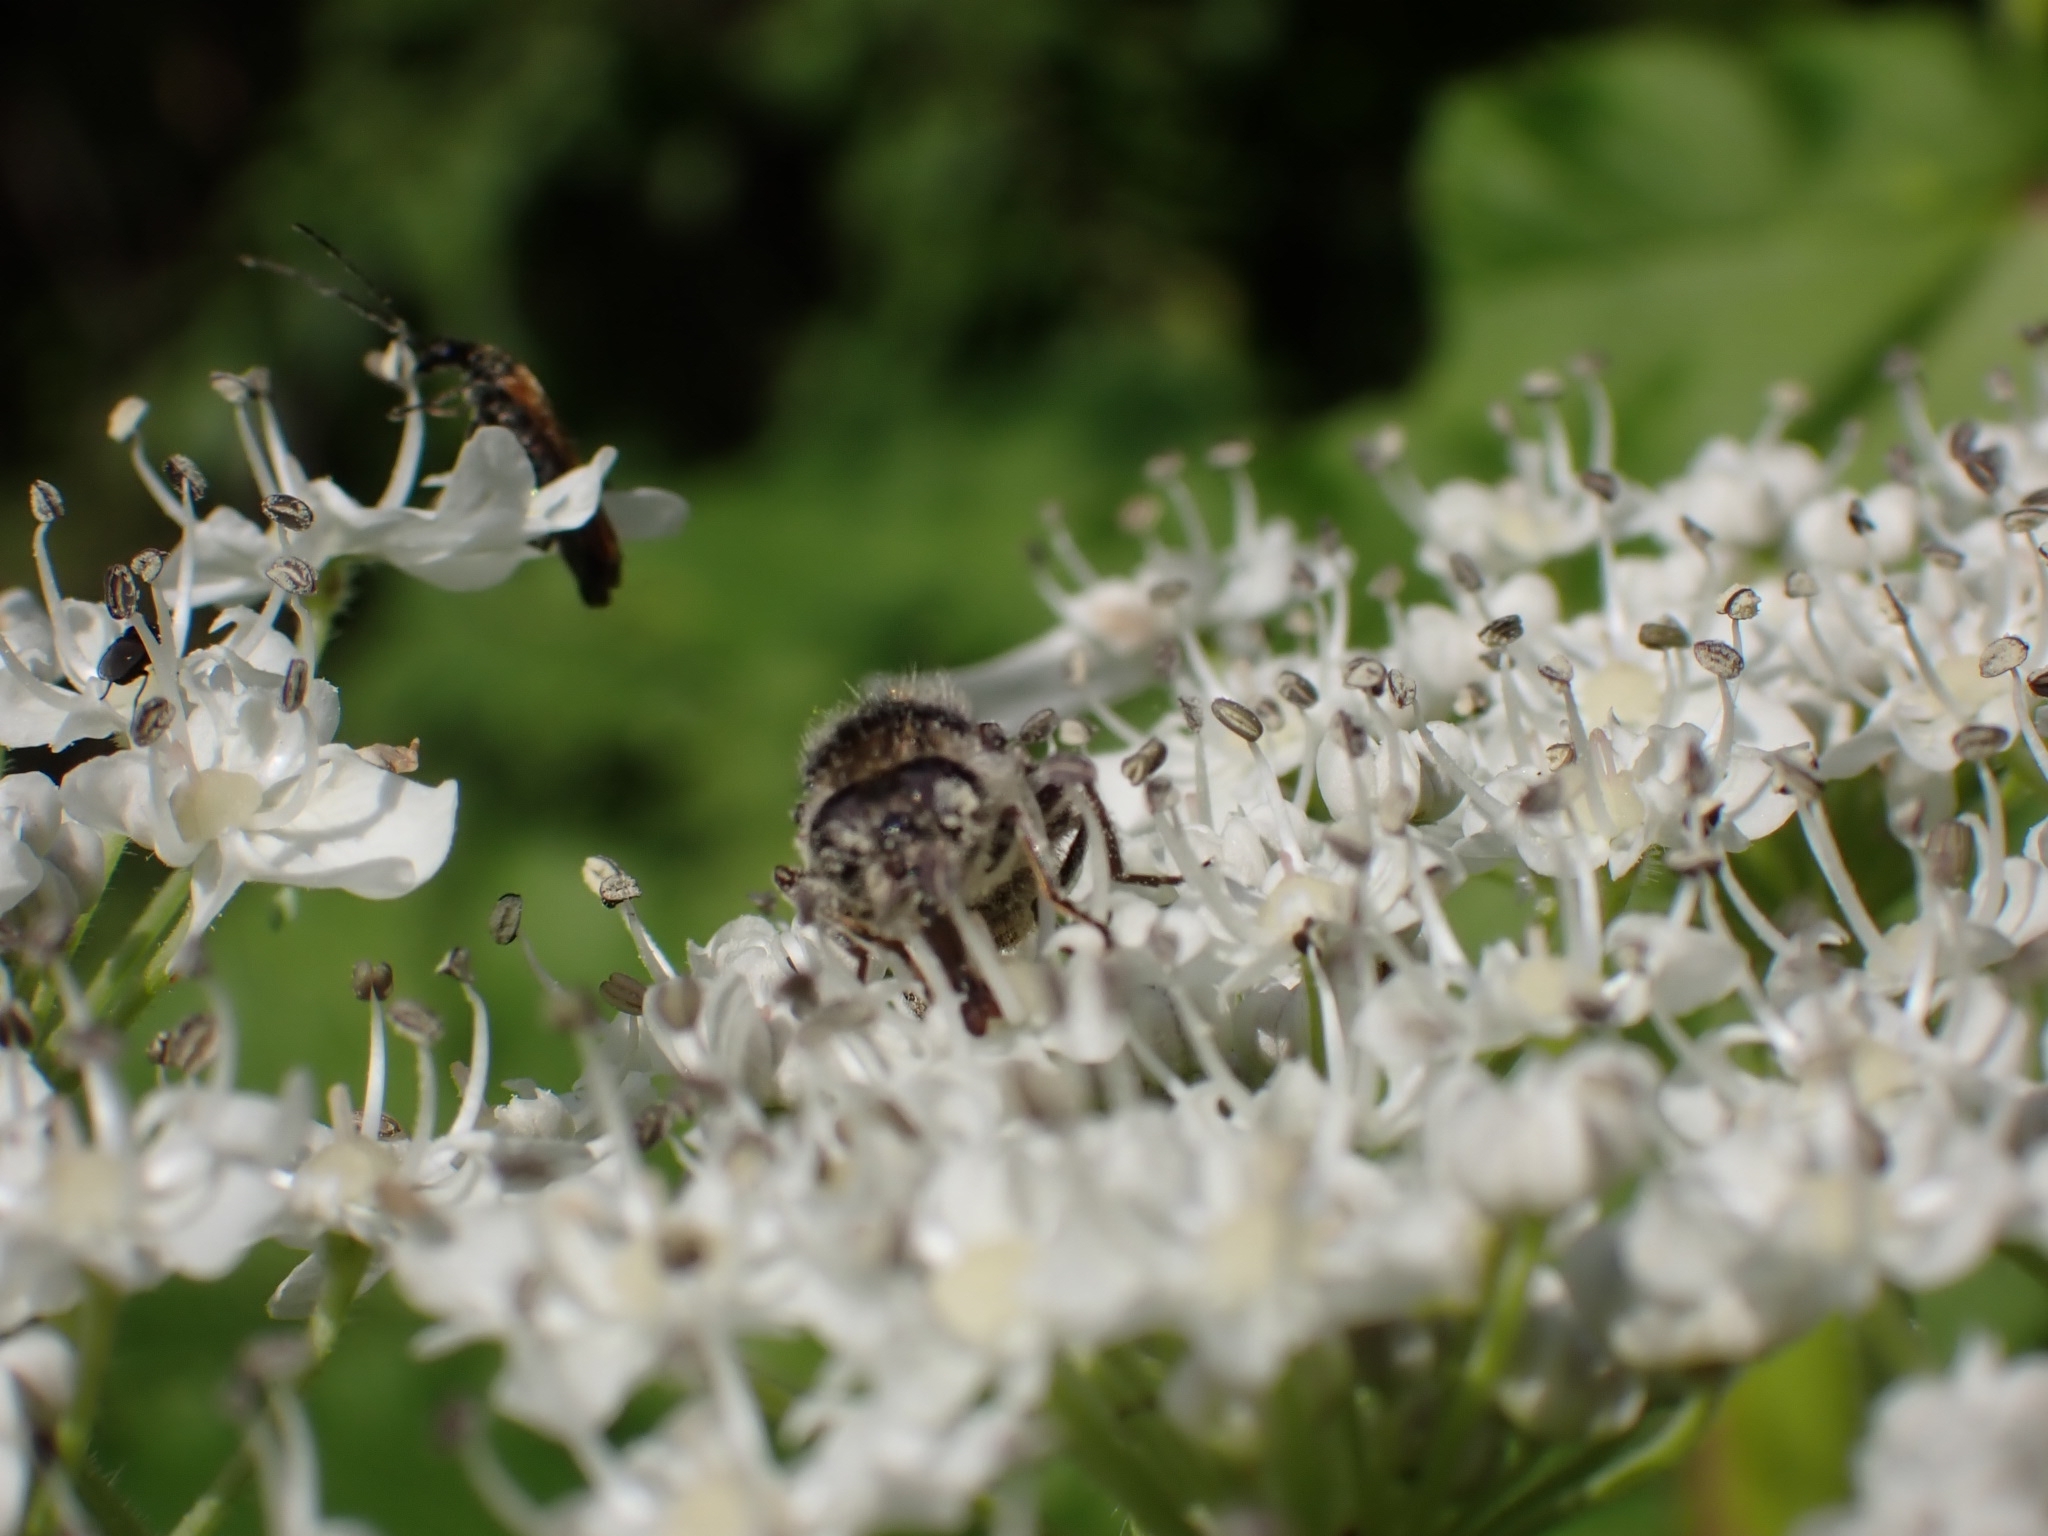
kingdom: Animalia
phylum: Arthropoda
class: Insecta
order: Diptera
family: Syrphidae
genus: Cheilosia
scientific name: Cheilosia illustrata
